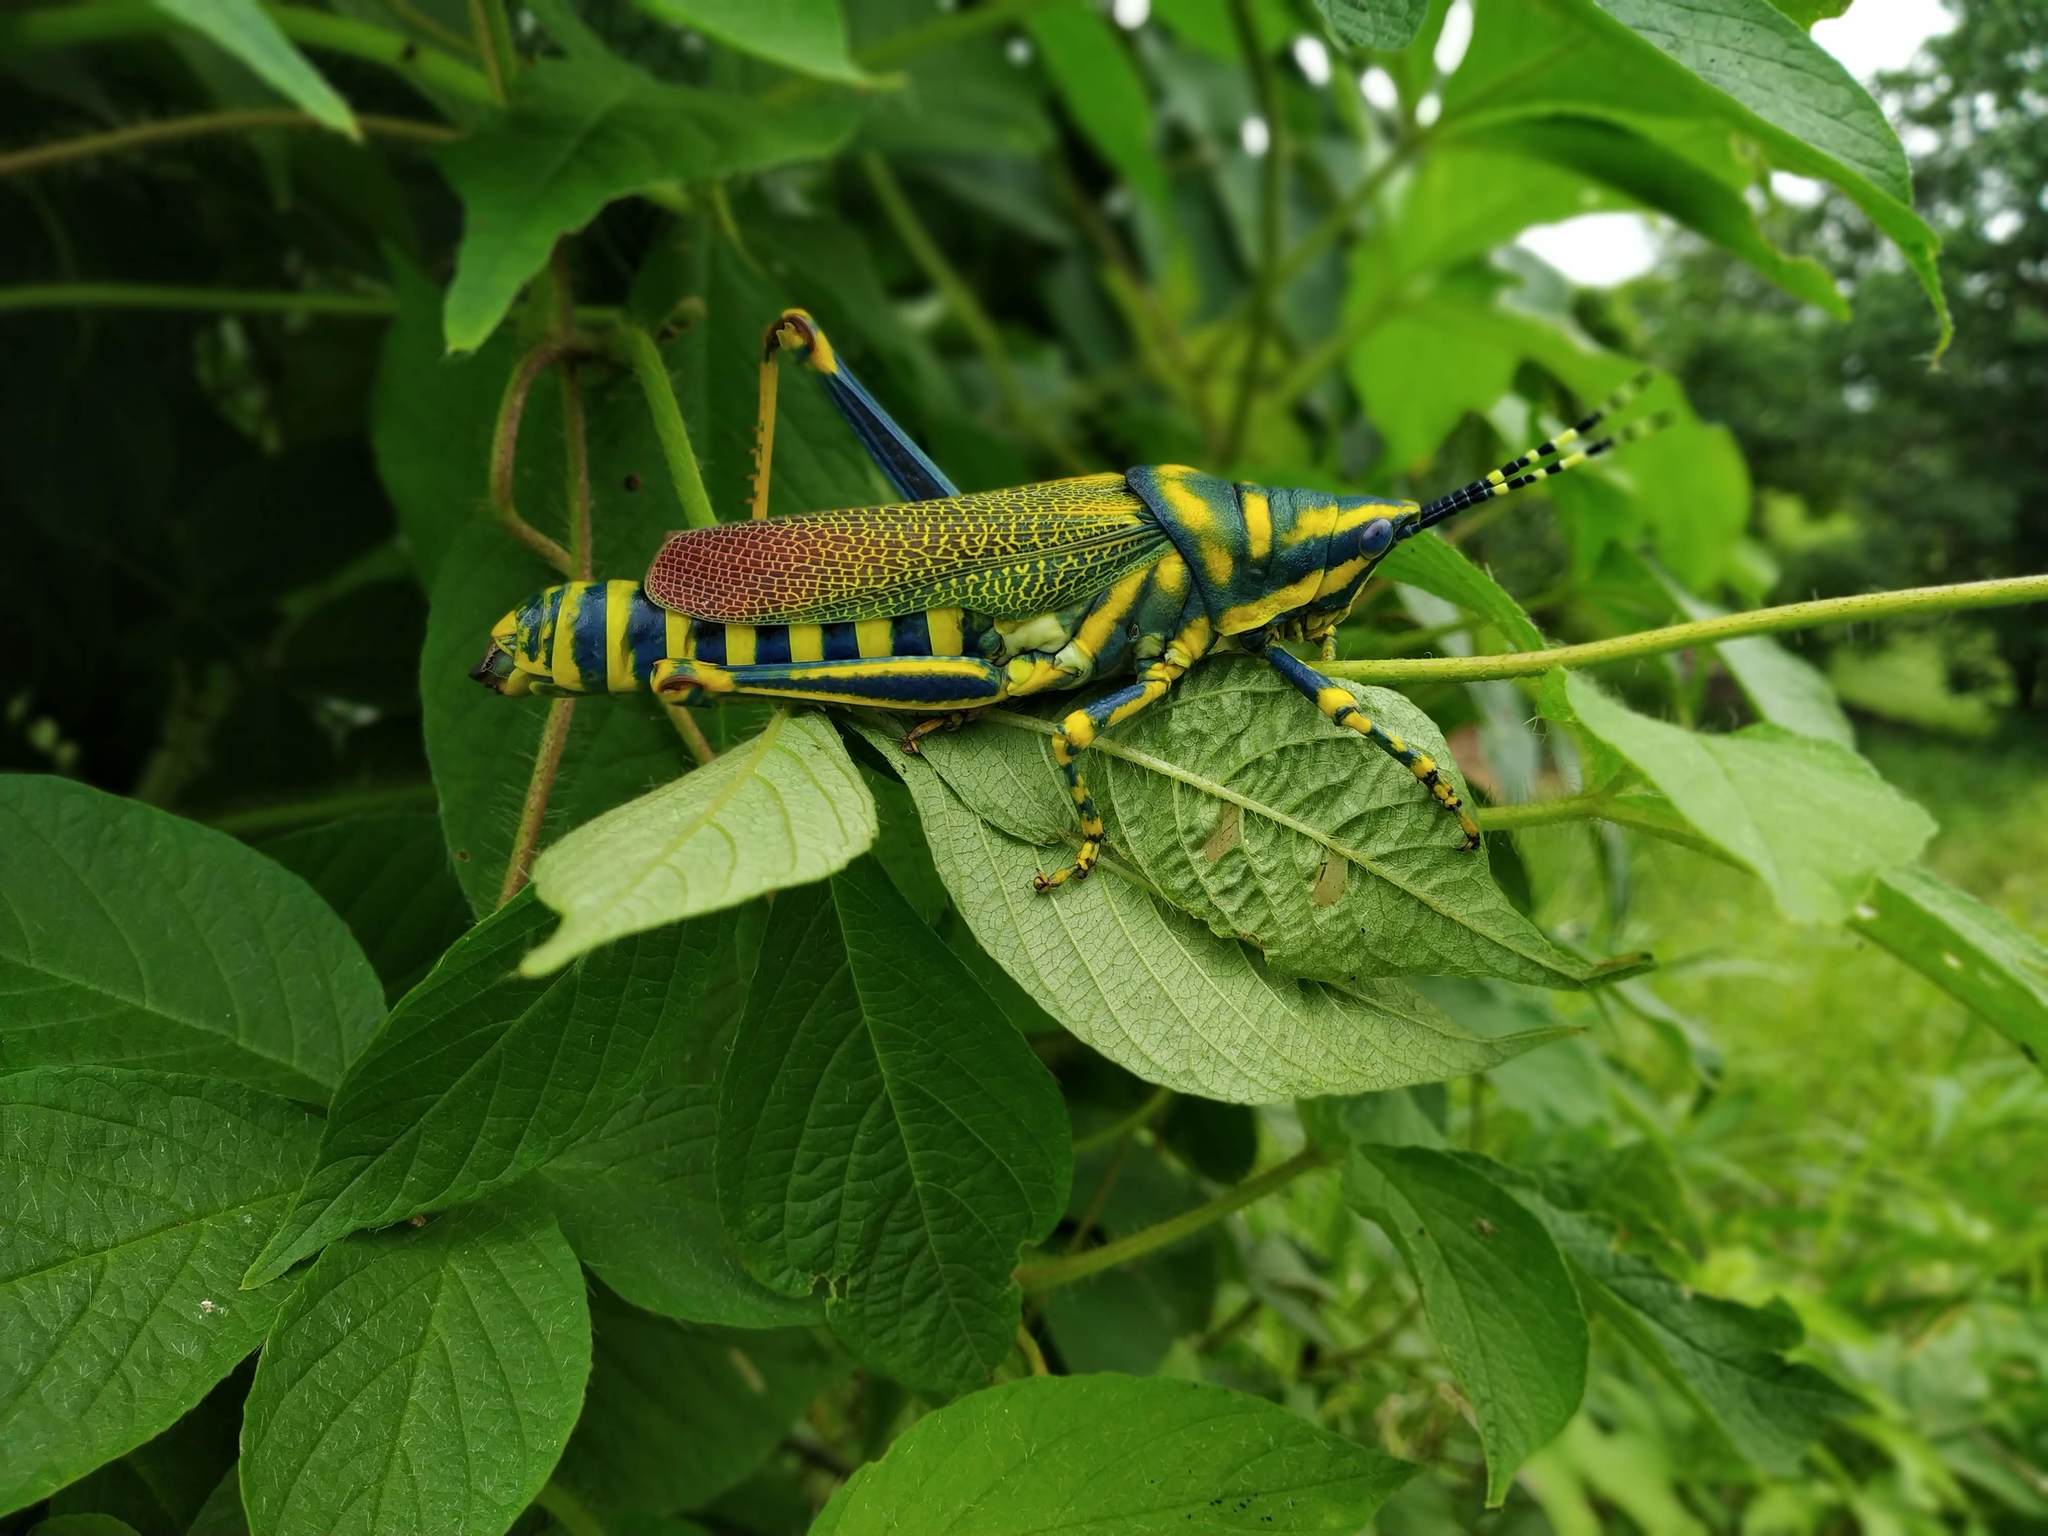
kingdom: Animalia
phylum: Arthropoda
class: Insecta
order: Orthoptera
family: Pyrgomorphidae
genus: Poekilocerus
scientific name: Poekilocerus pictus
